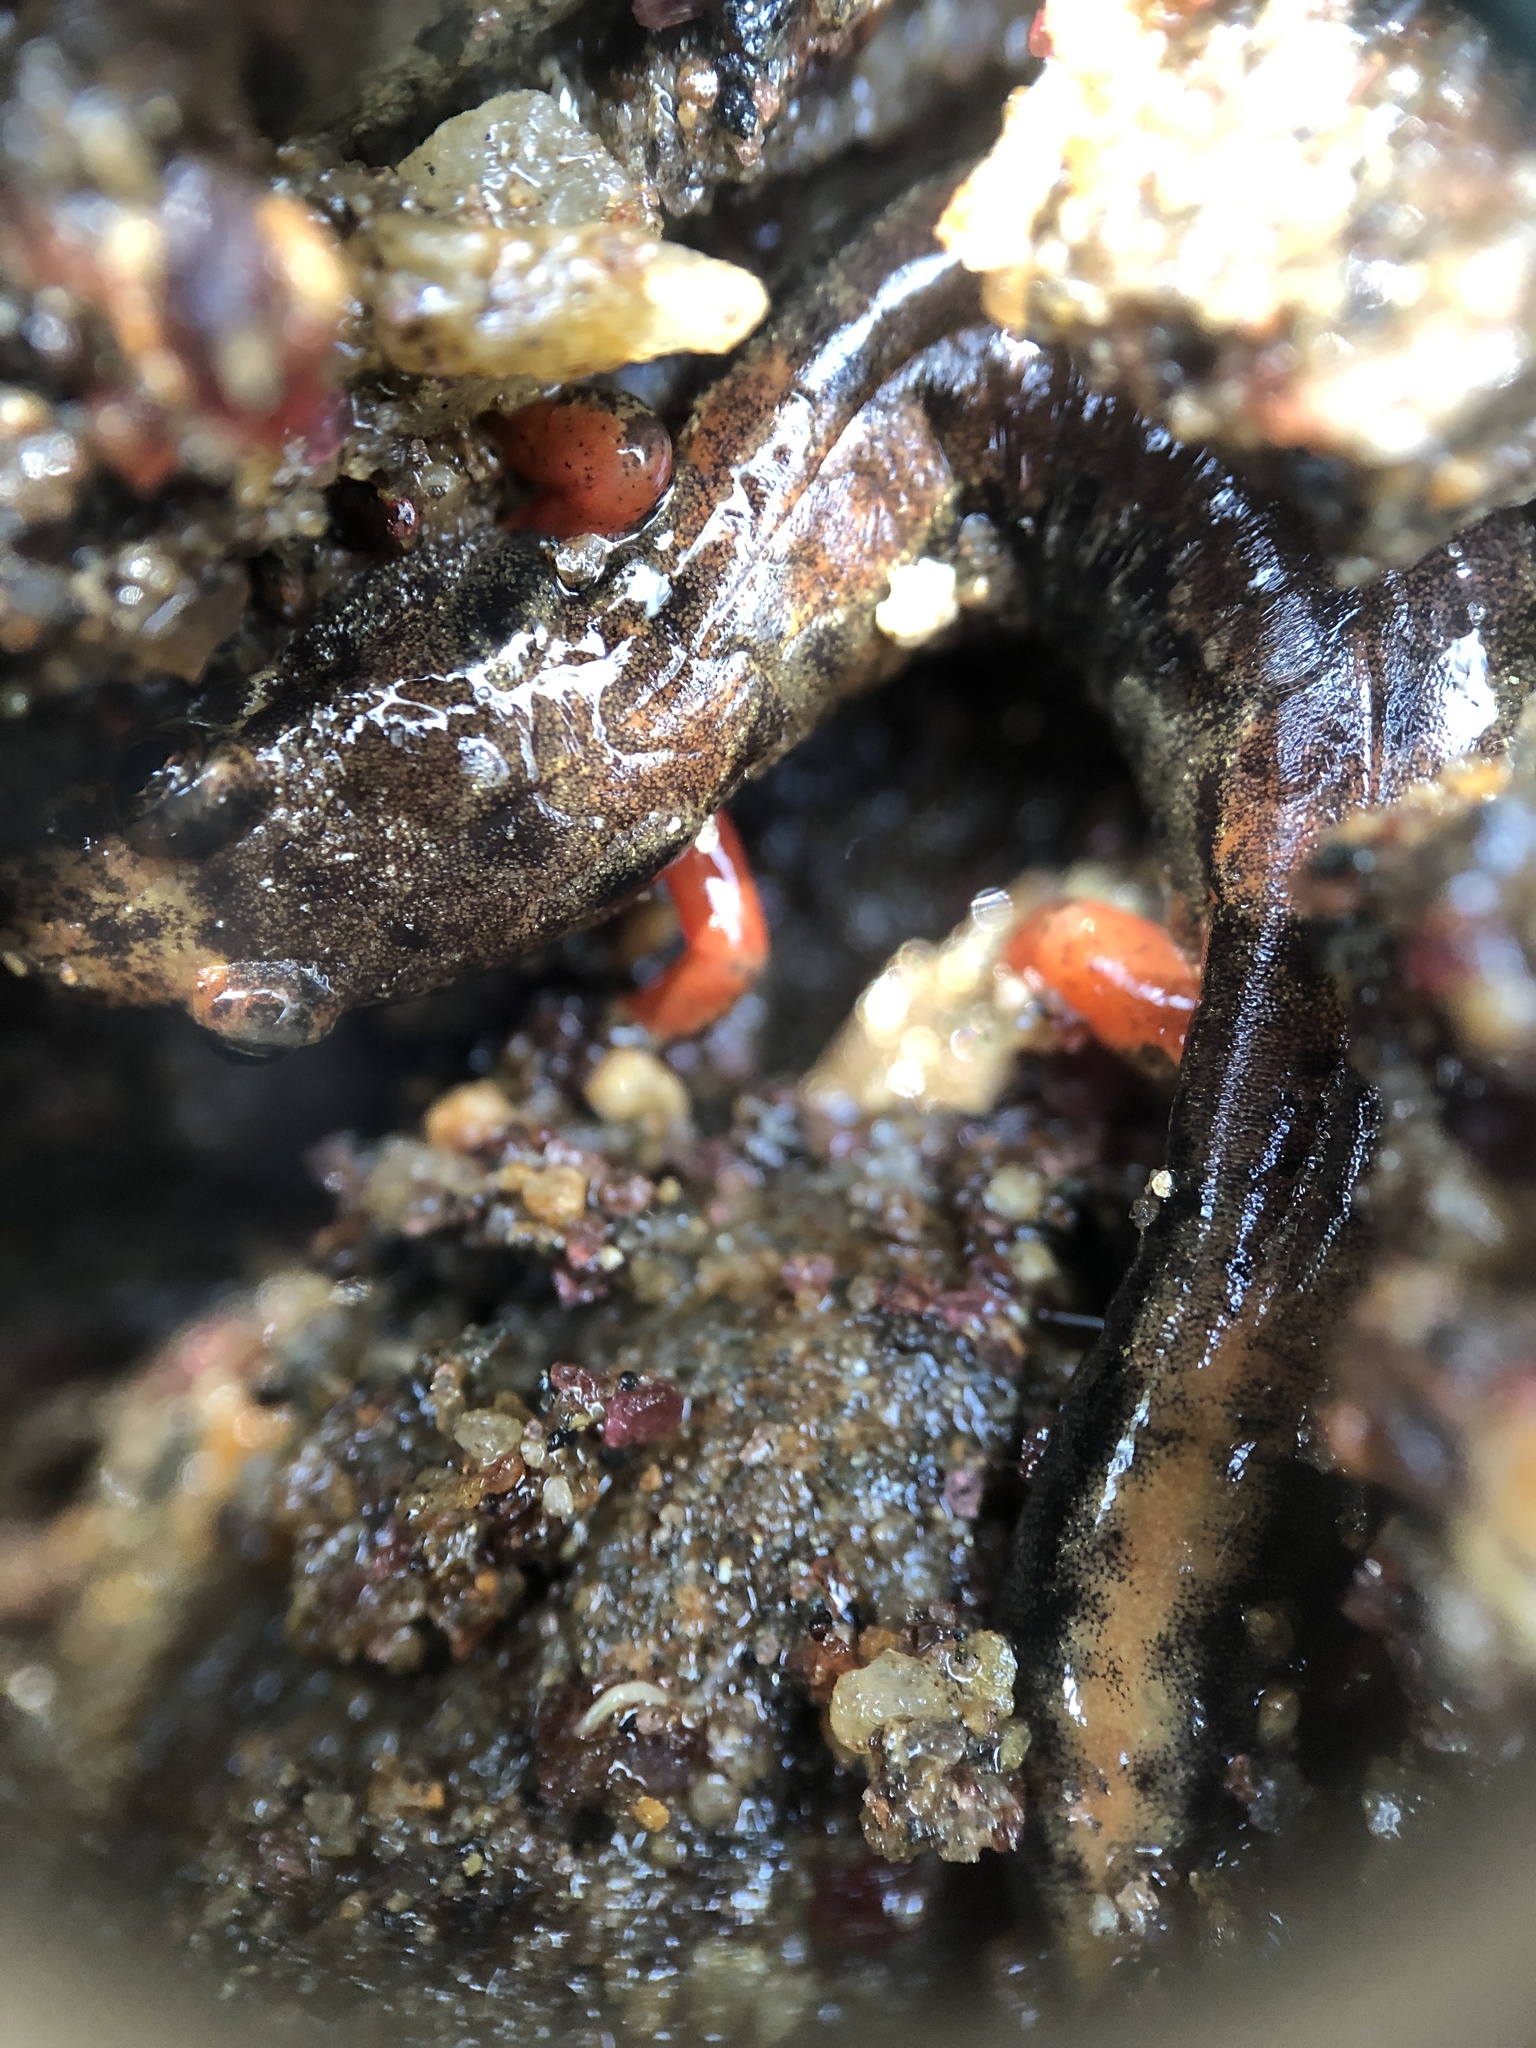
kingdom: Animalia
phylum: Chordata
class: Amphibia
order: Caudata
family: Plethodontidae
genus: Desmognathus
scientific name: Desmognathus ocoee
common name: Ocoee salamander
